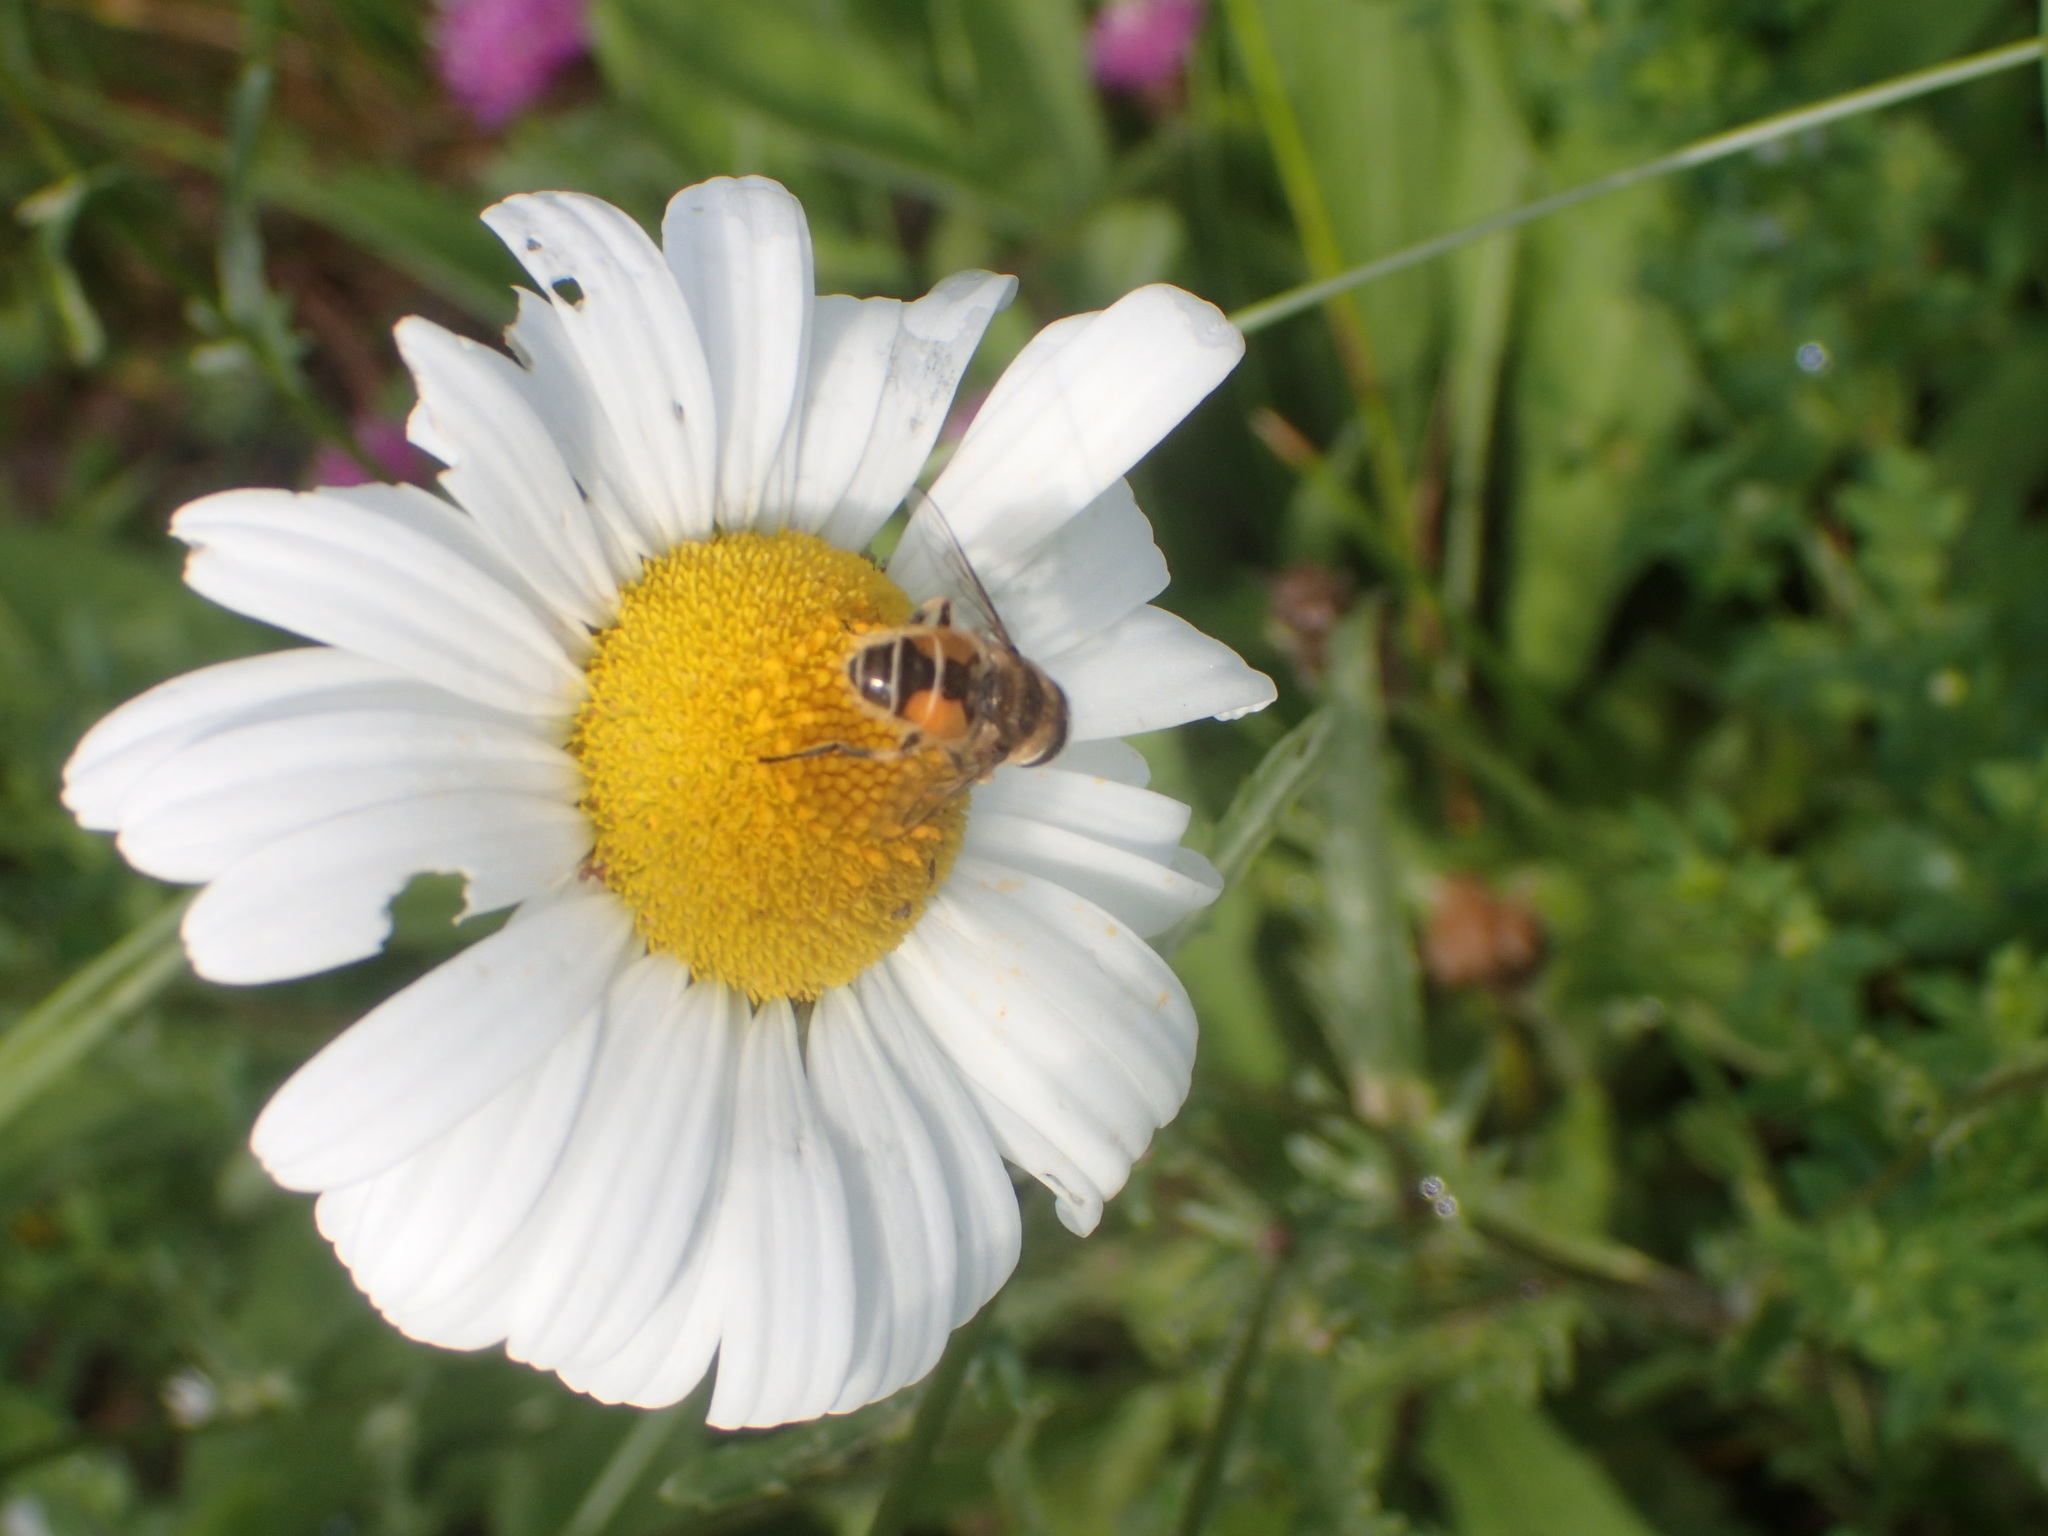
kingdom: Animalia
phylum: Arthropoda
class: Insecta
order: Diptera
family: Syrphidae
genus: Eristalis
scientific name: Eristalis arbustorum
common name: Hover fly
